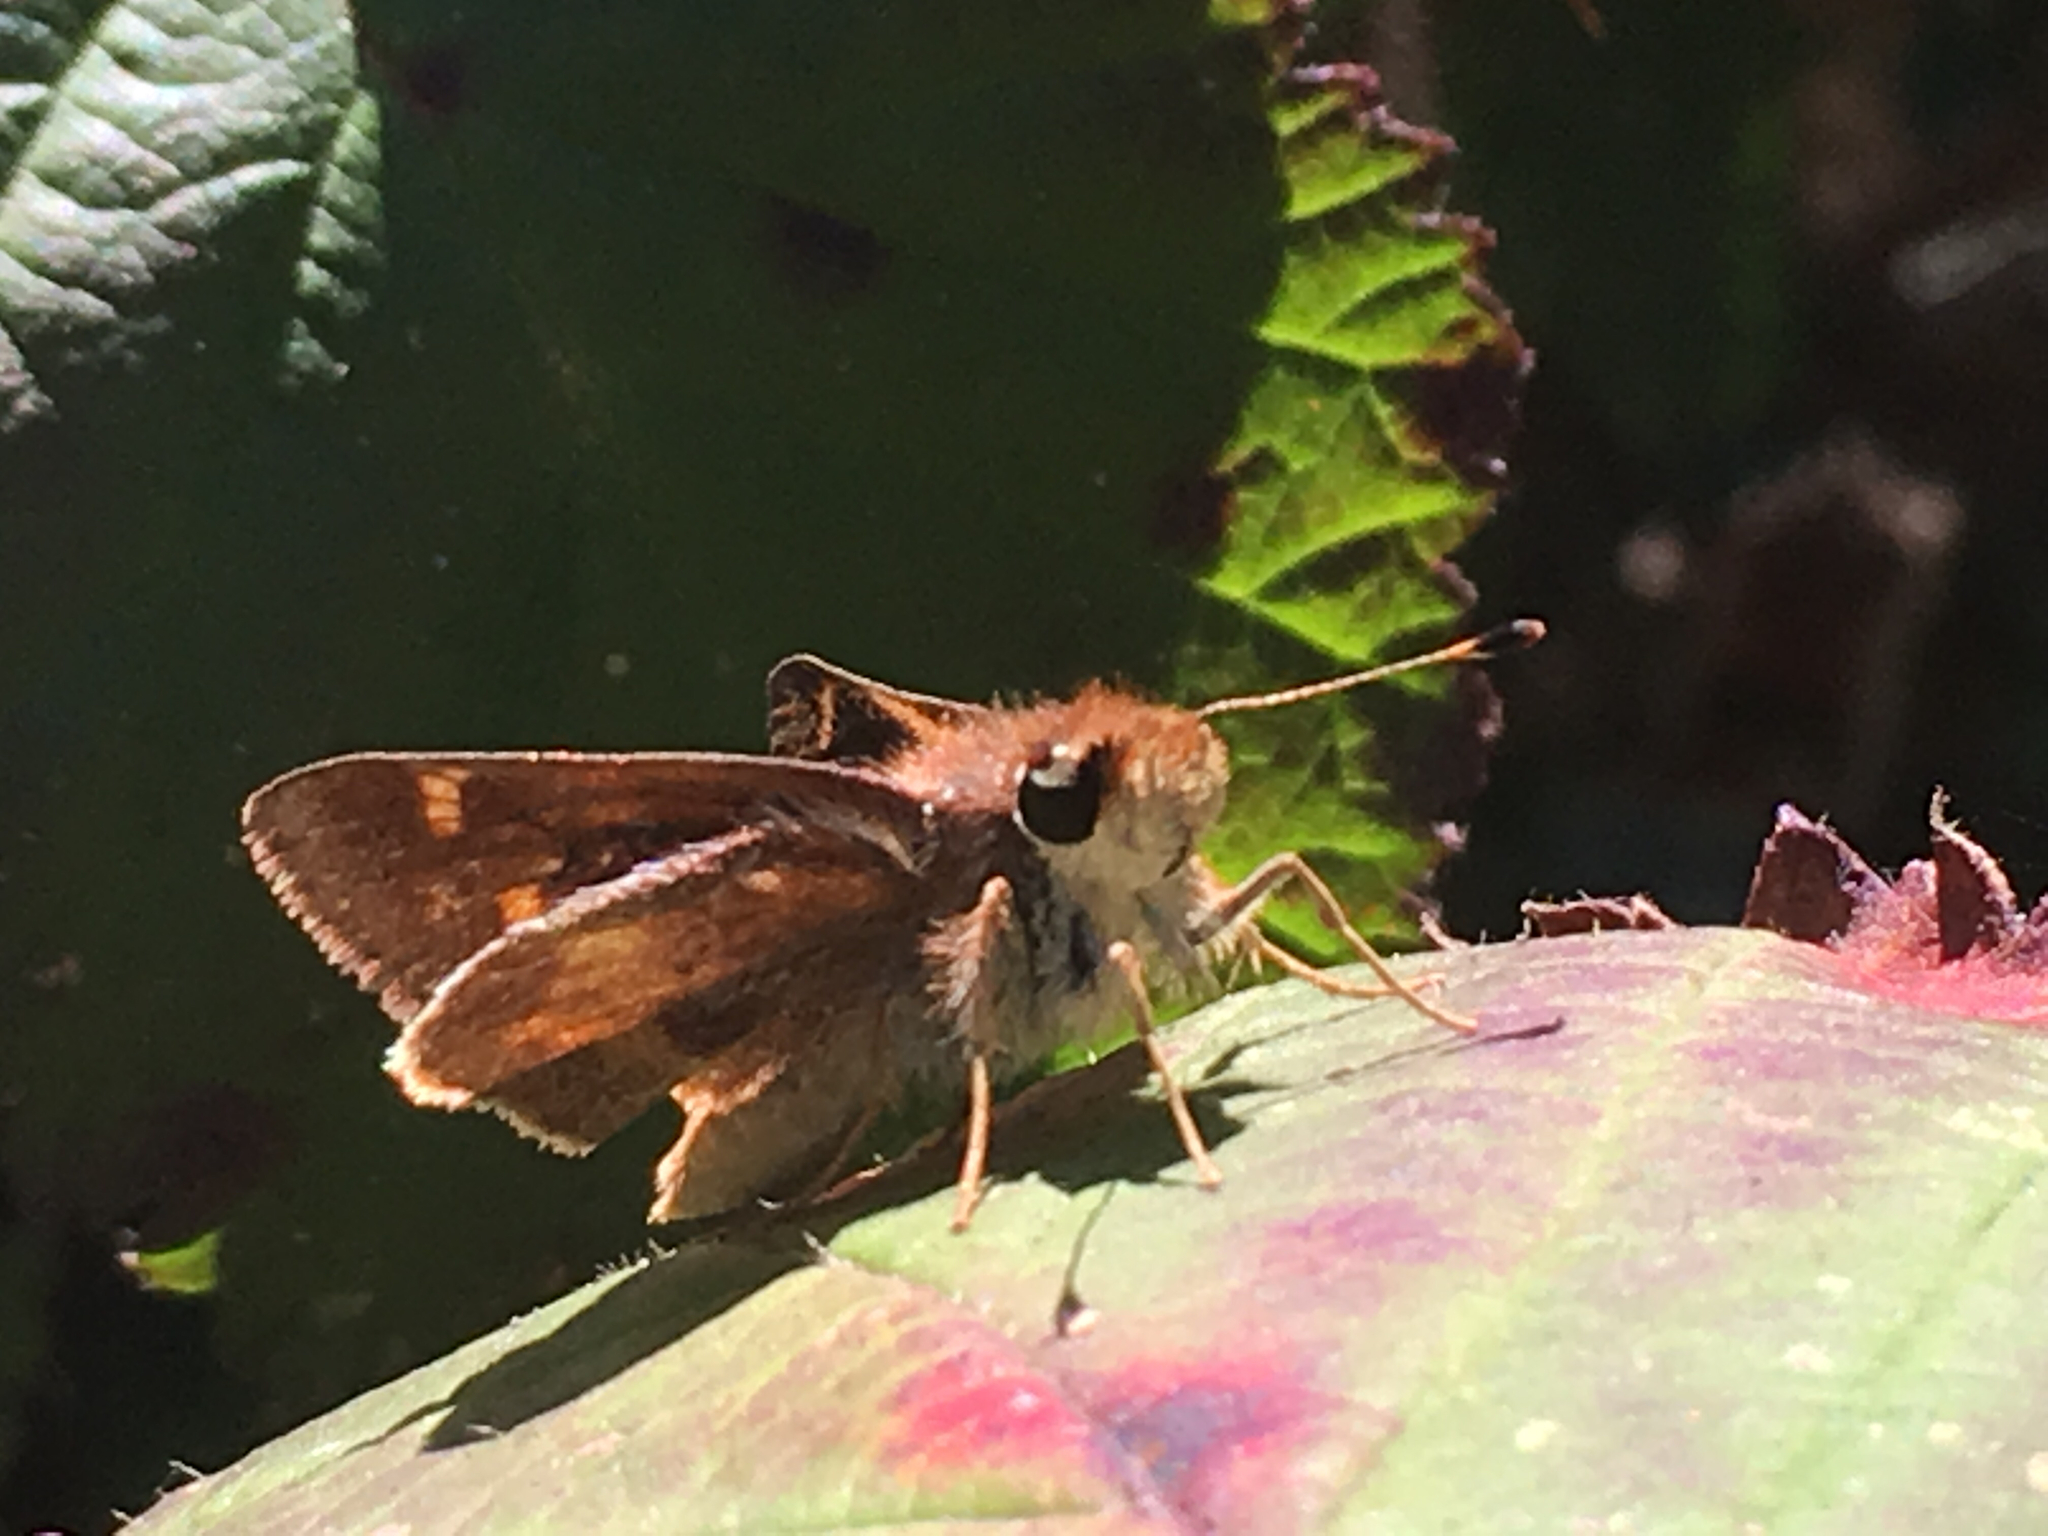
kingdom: Animalia
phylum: Arthropoda
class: Insecta
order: Lepidoptera
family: Hesperiidae
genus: Lon
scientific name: Lon melane
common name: Umber skipper
